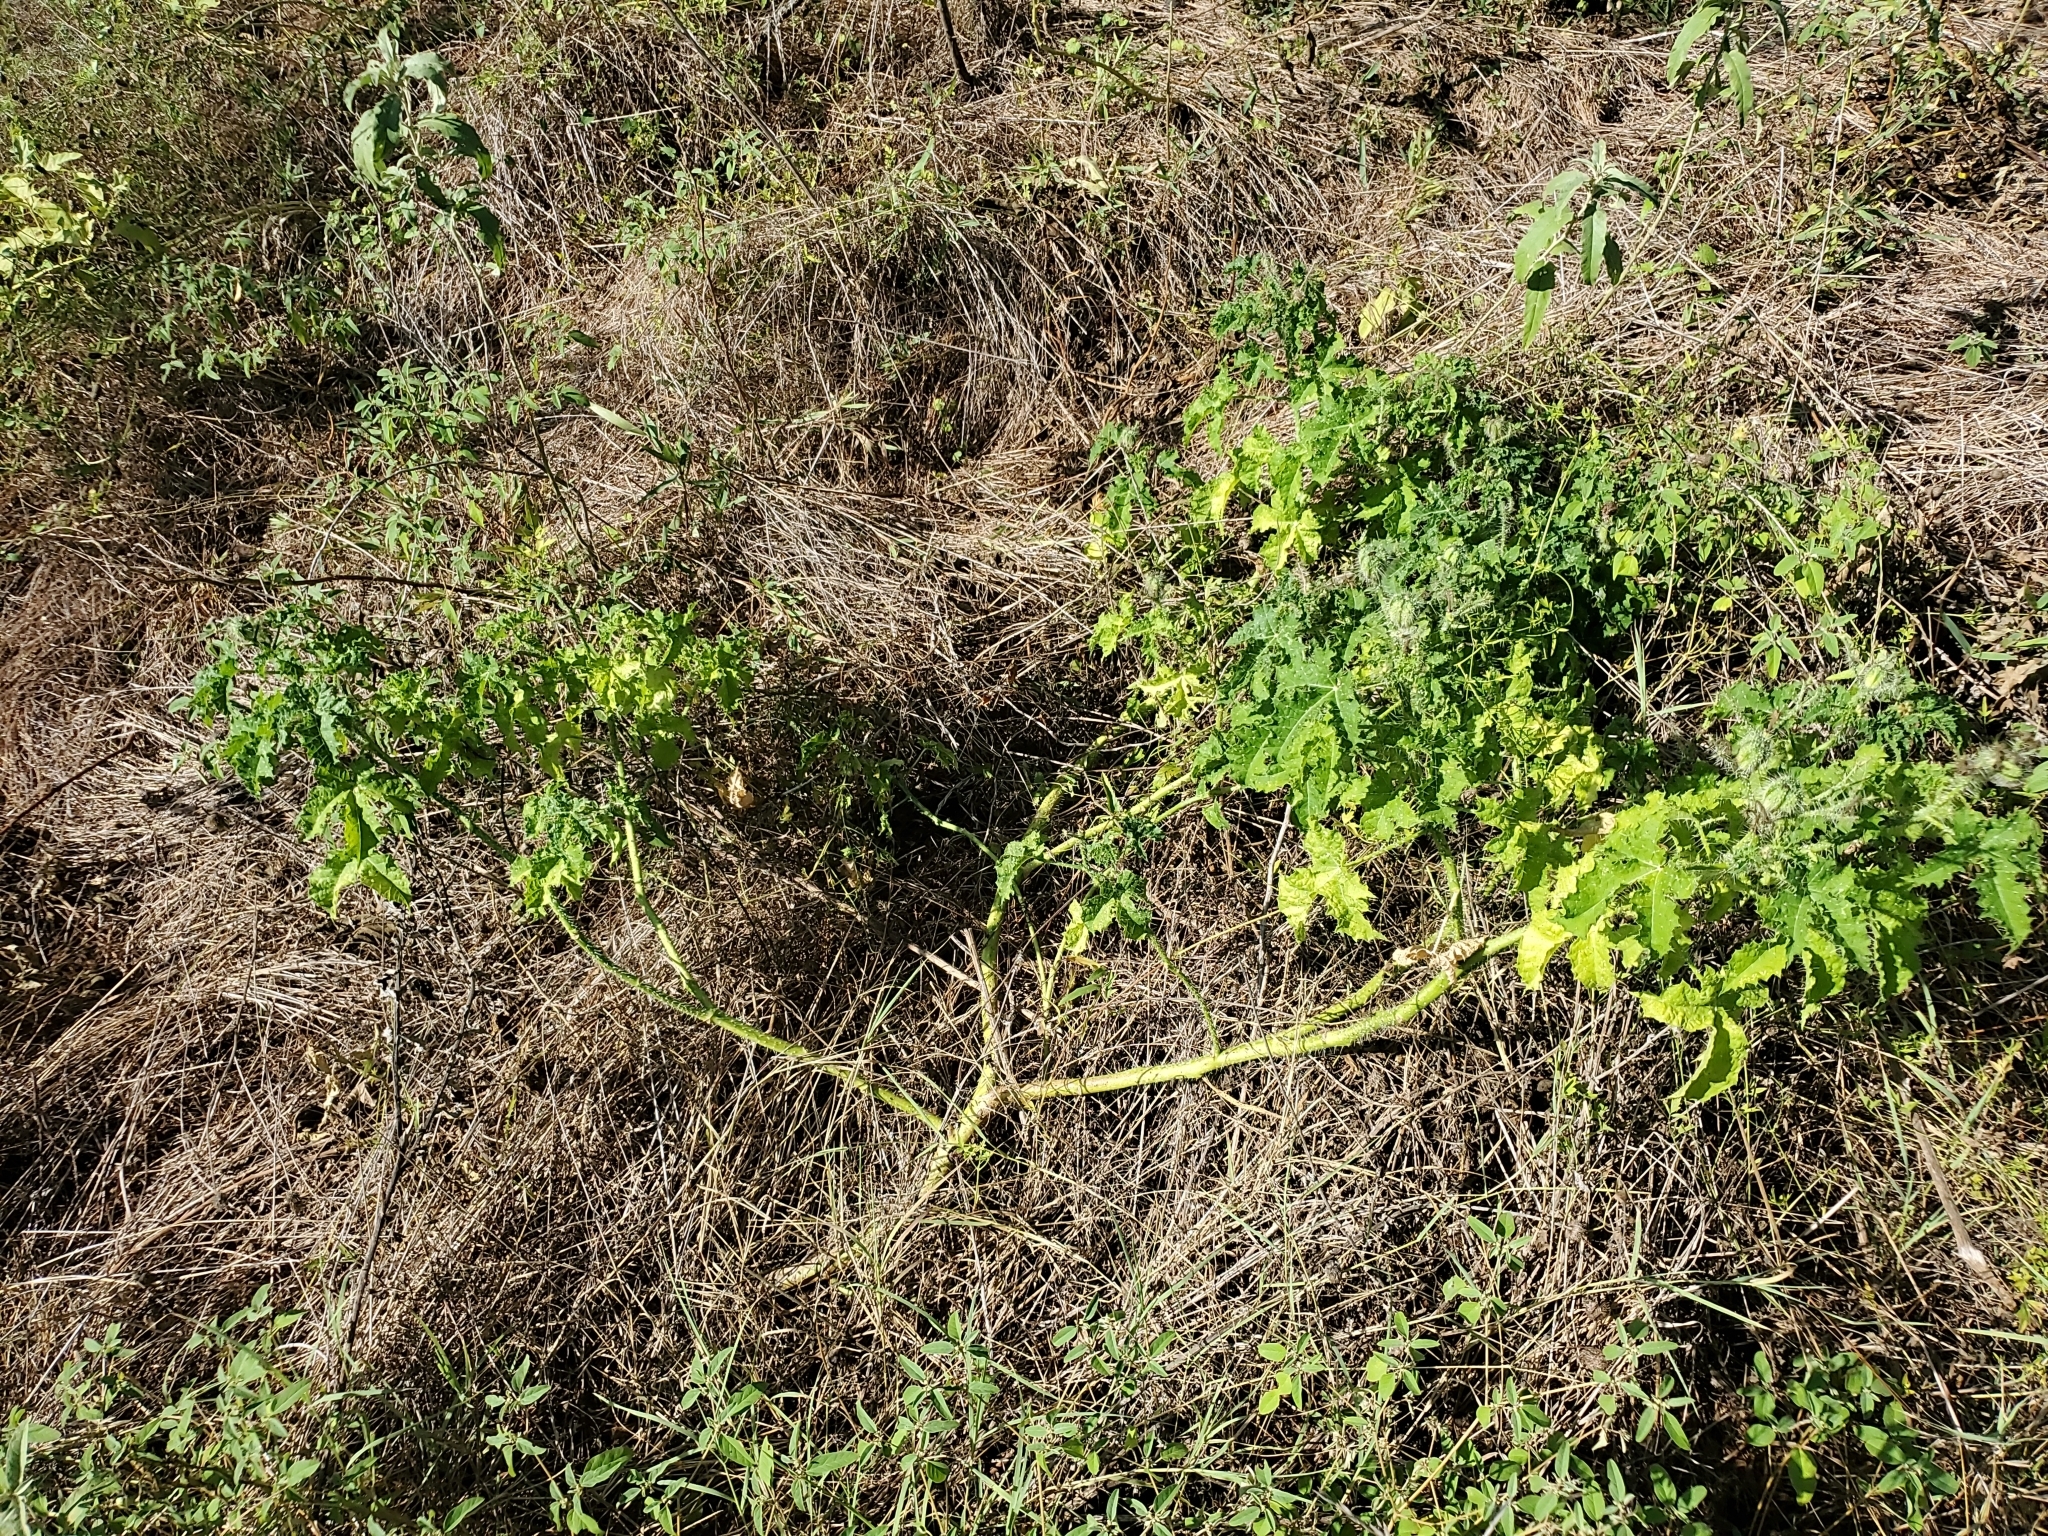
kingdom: Plantae
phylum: Tracheophyta
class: Magnoliopsida
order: Malpighiales
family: Euphorbiaceae
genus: Cnidoscolus
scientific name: Cnidoscolus texanus
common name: Texas bull-nettle
